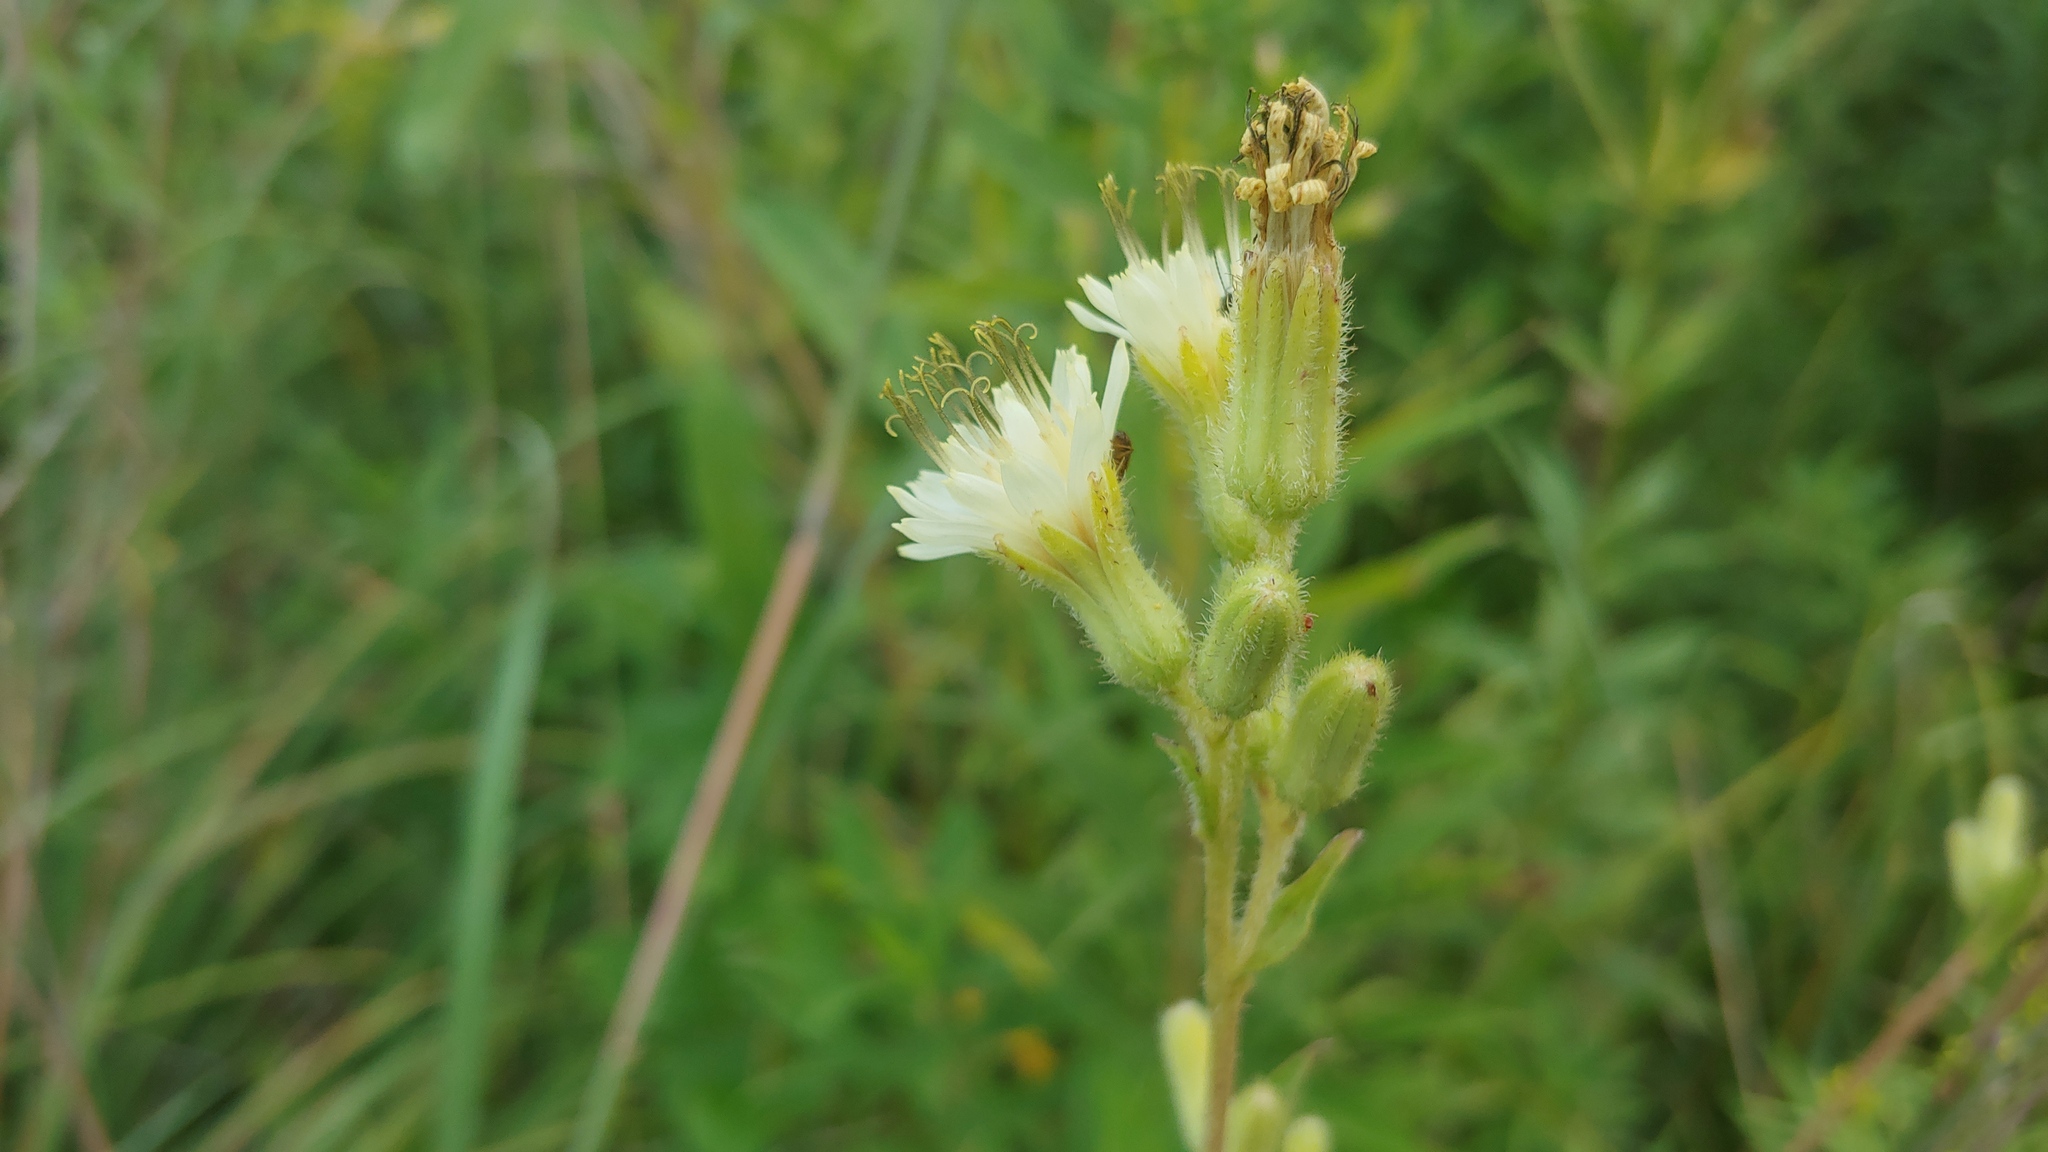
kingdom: Plantae
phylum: Tracheophyta
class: Magnoliopsida
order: Asterales
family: Asteraceae
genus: Nabalus
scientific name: Nabalus asper
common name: Rough rattlesnakeroot
